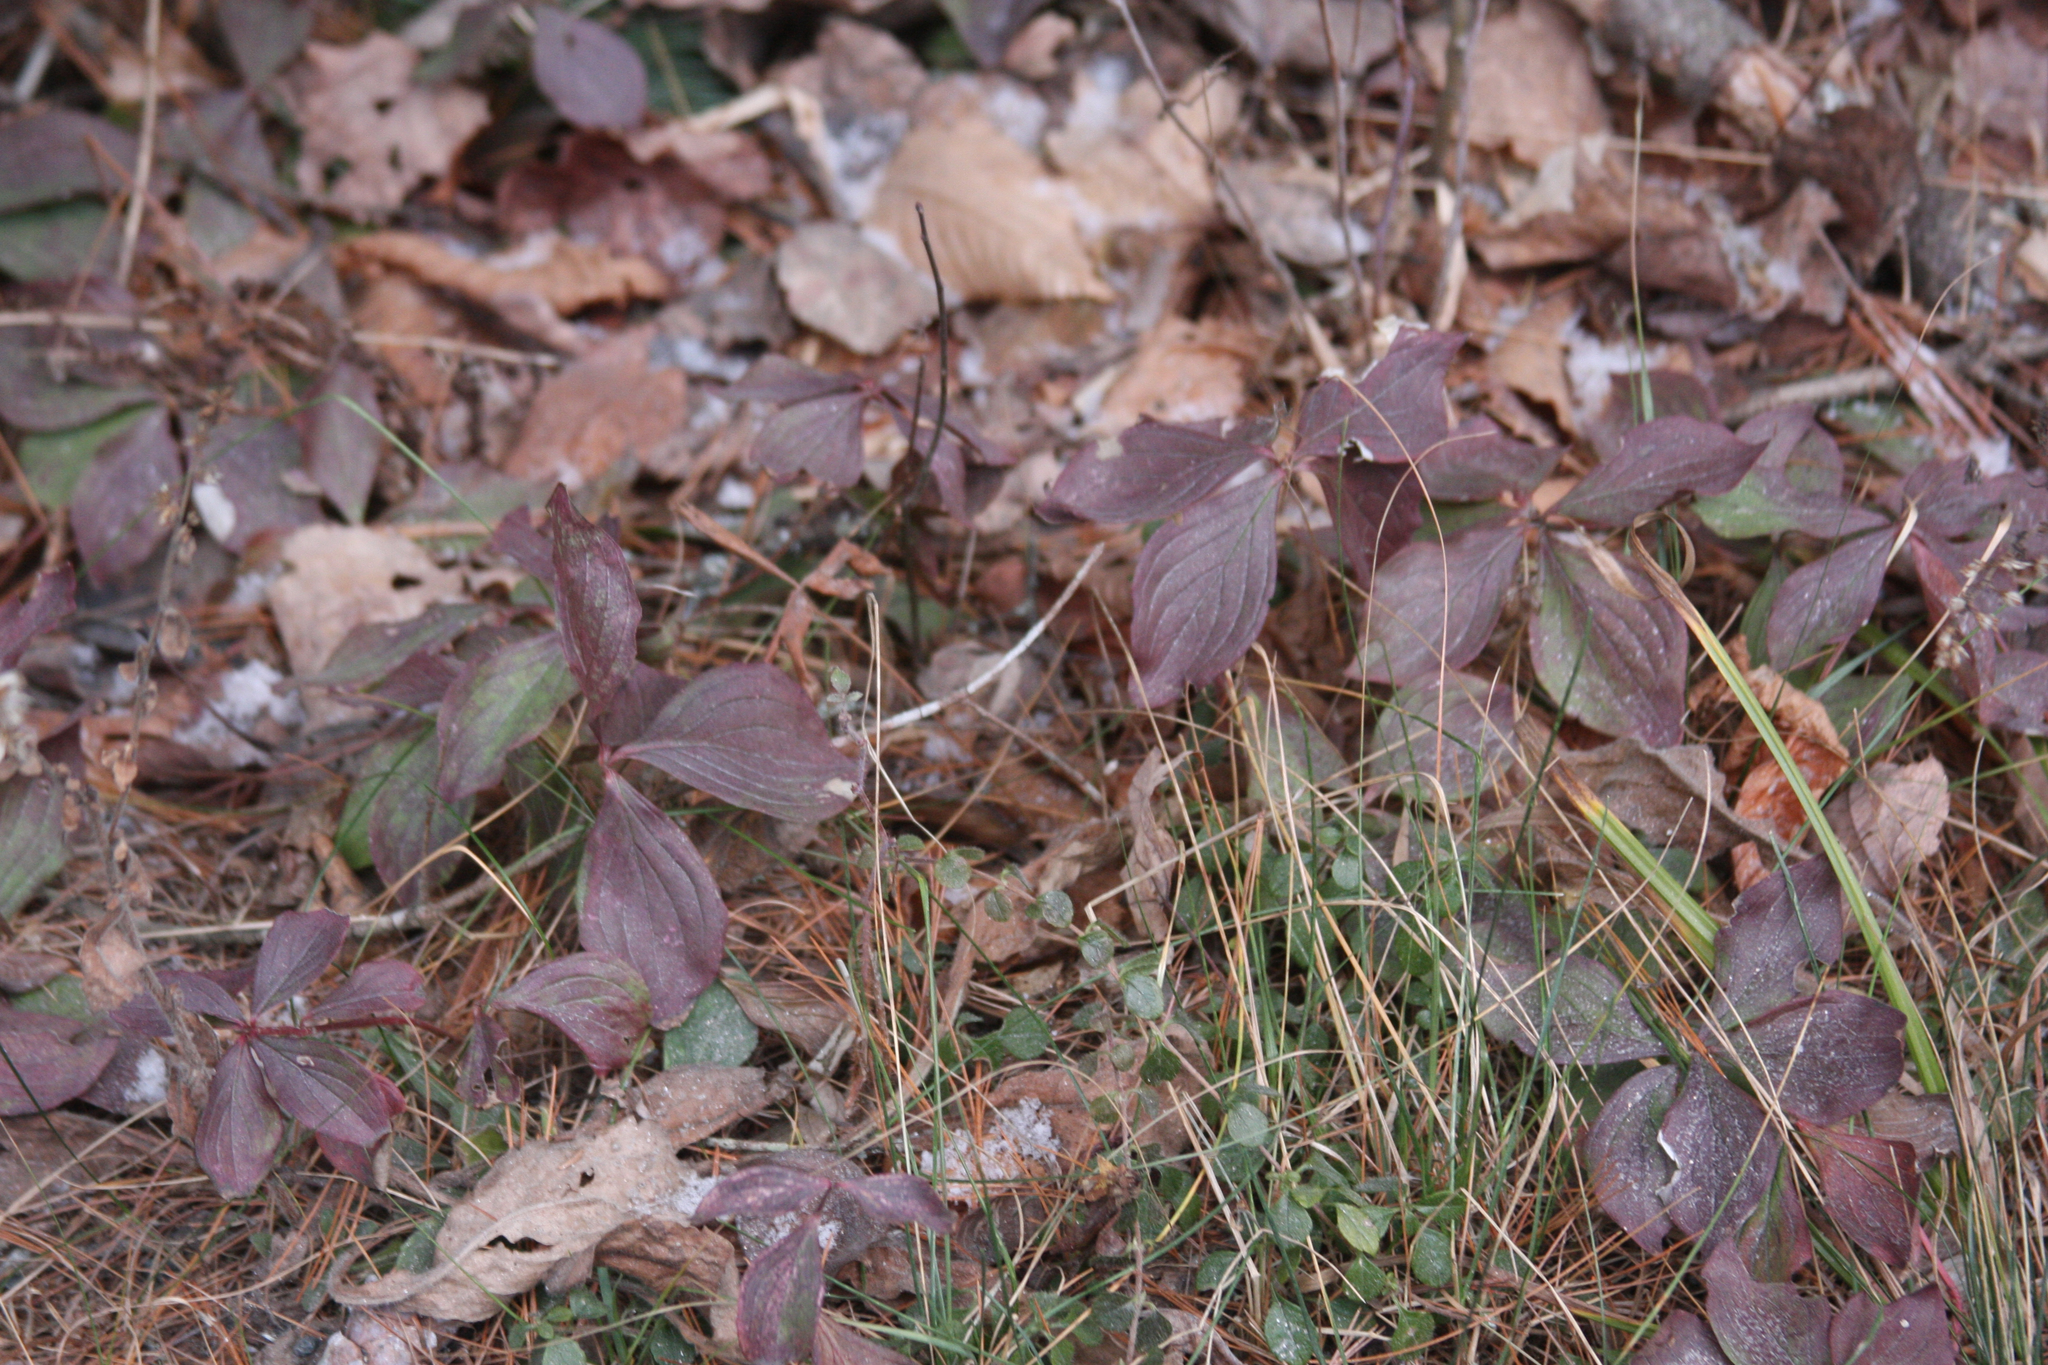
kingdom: Plantae
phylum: Tracheophyta
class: Magnoliopsida
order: Cornales
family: Cornaceae
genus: Cornus
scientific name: Cornus canadensis
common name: Creeping dogwood
